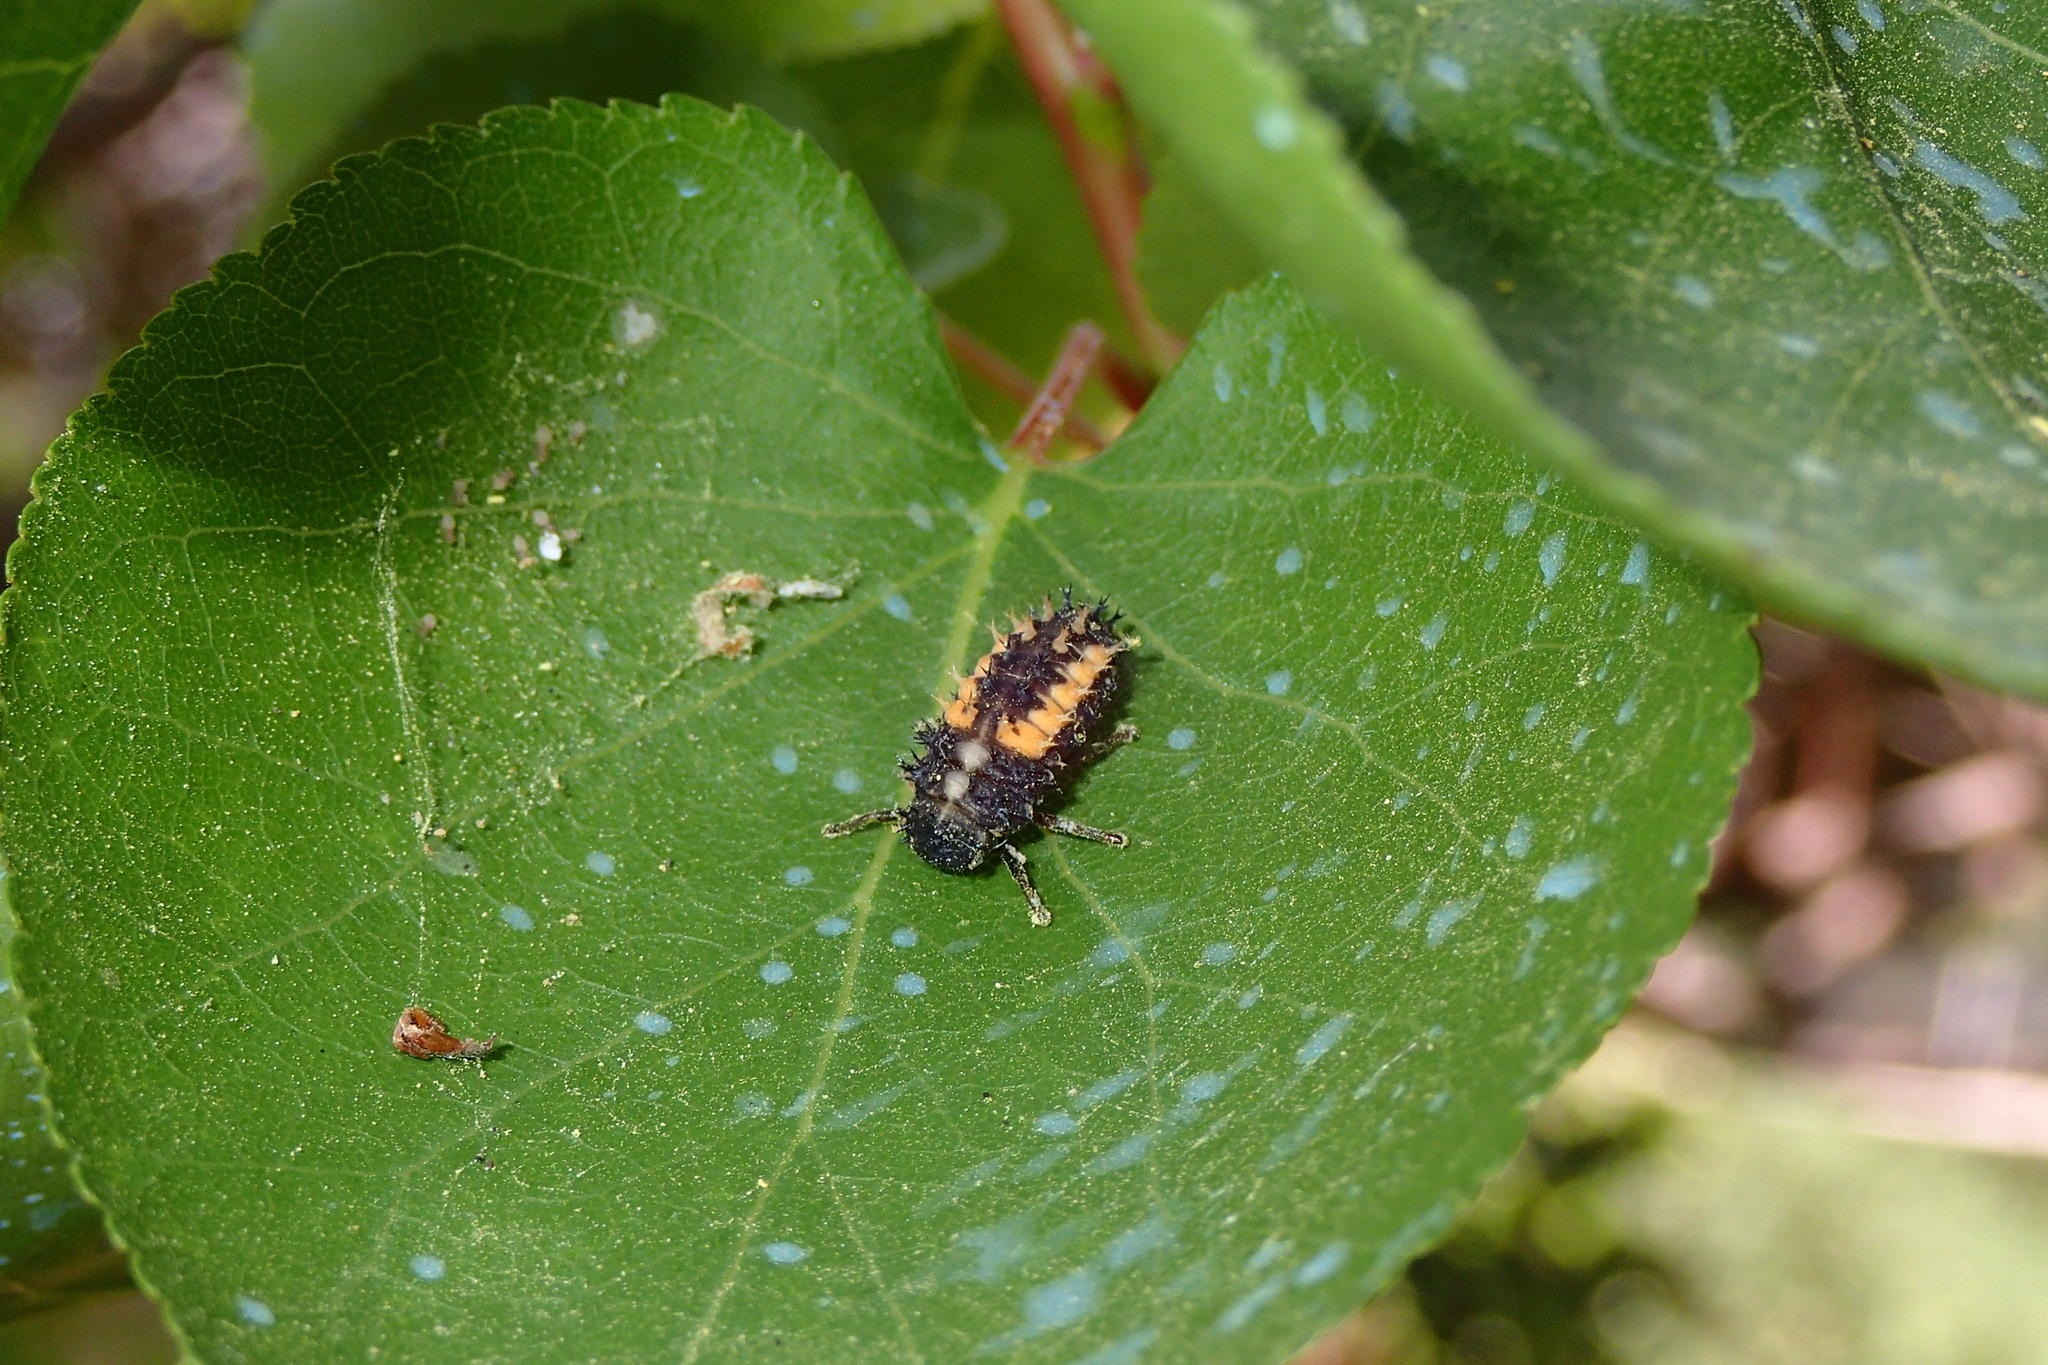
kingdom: Animalia
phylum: Arthropoda
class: Insecta
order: Coleoptera
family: Coccinellidae
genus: Harmonia
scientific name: Harmonia axyridis
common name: Harlequin ladybird
